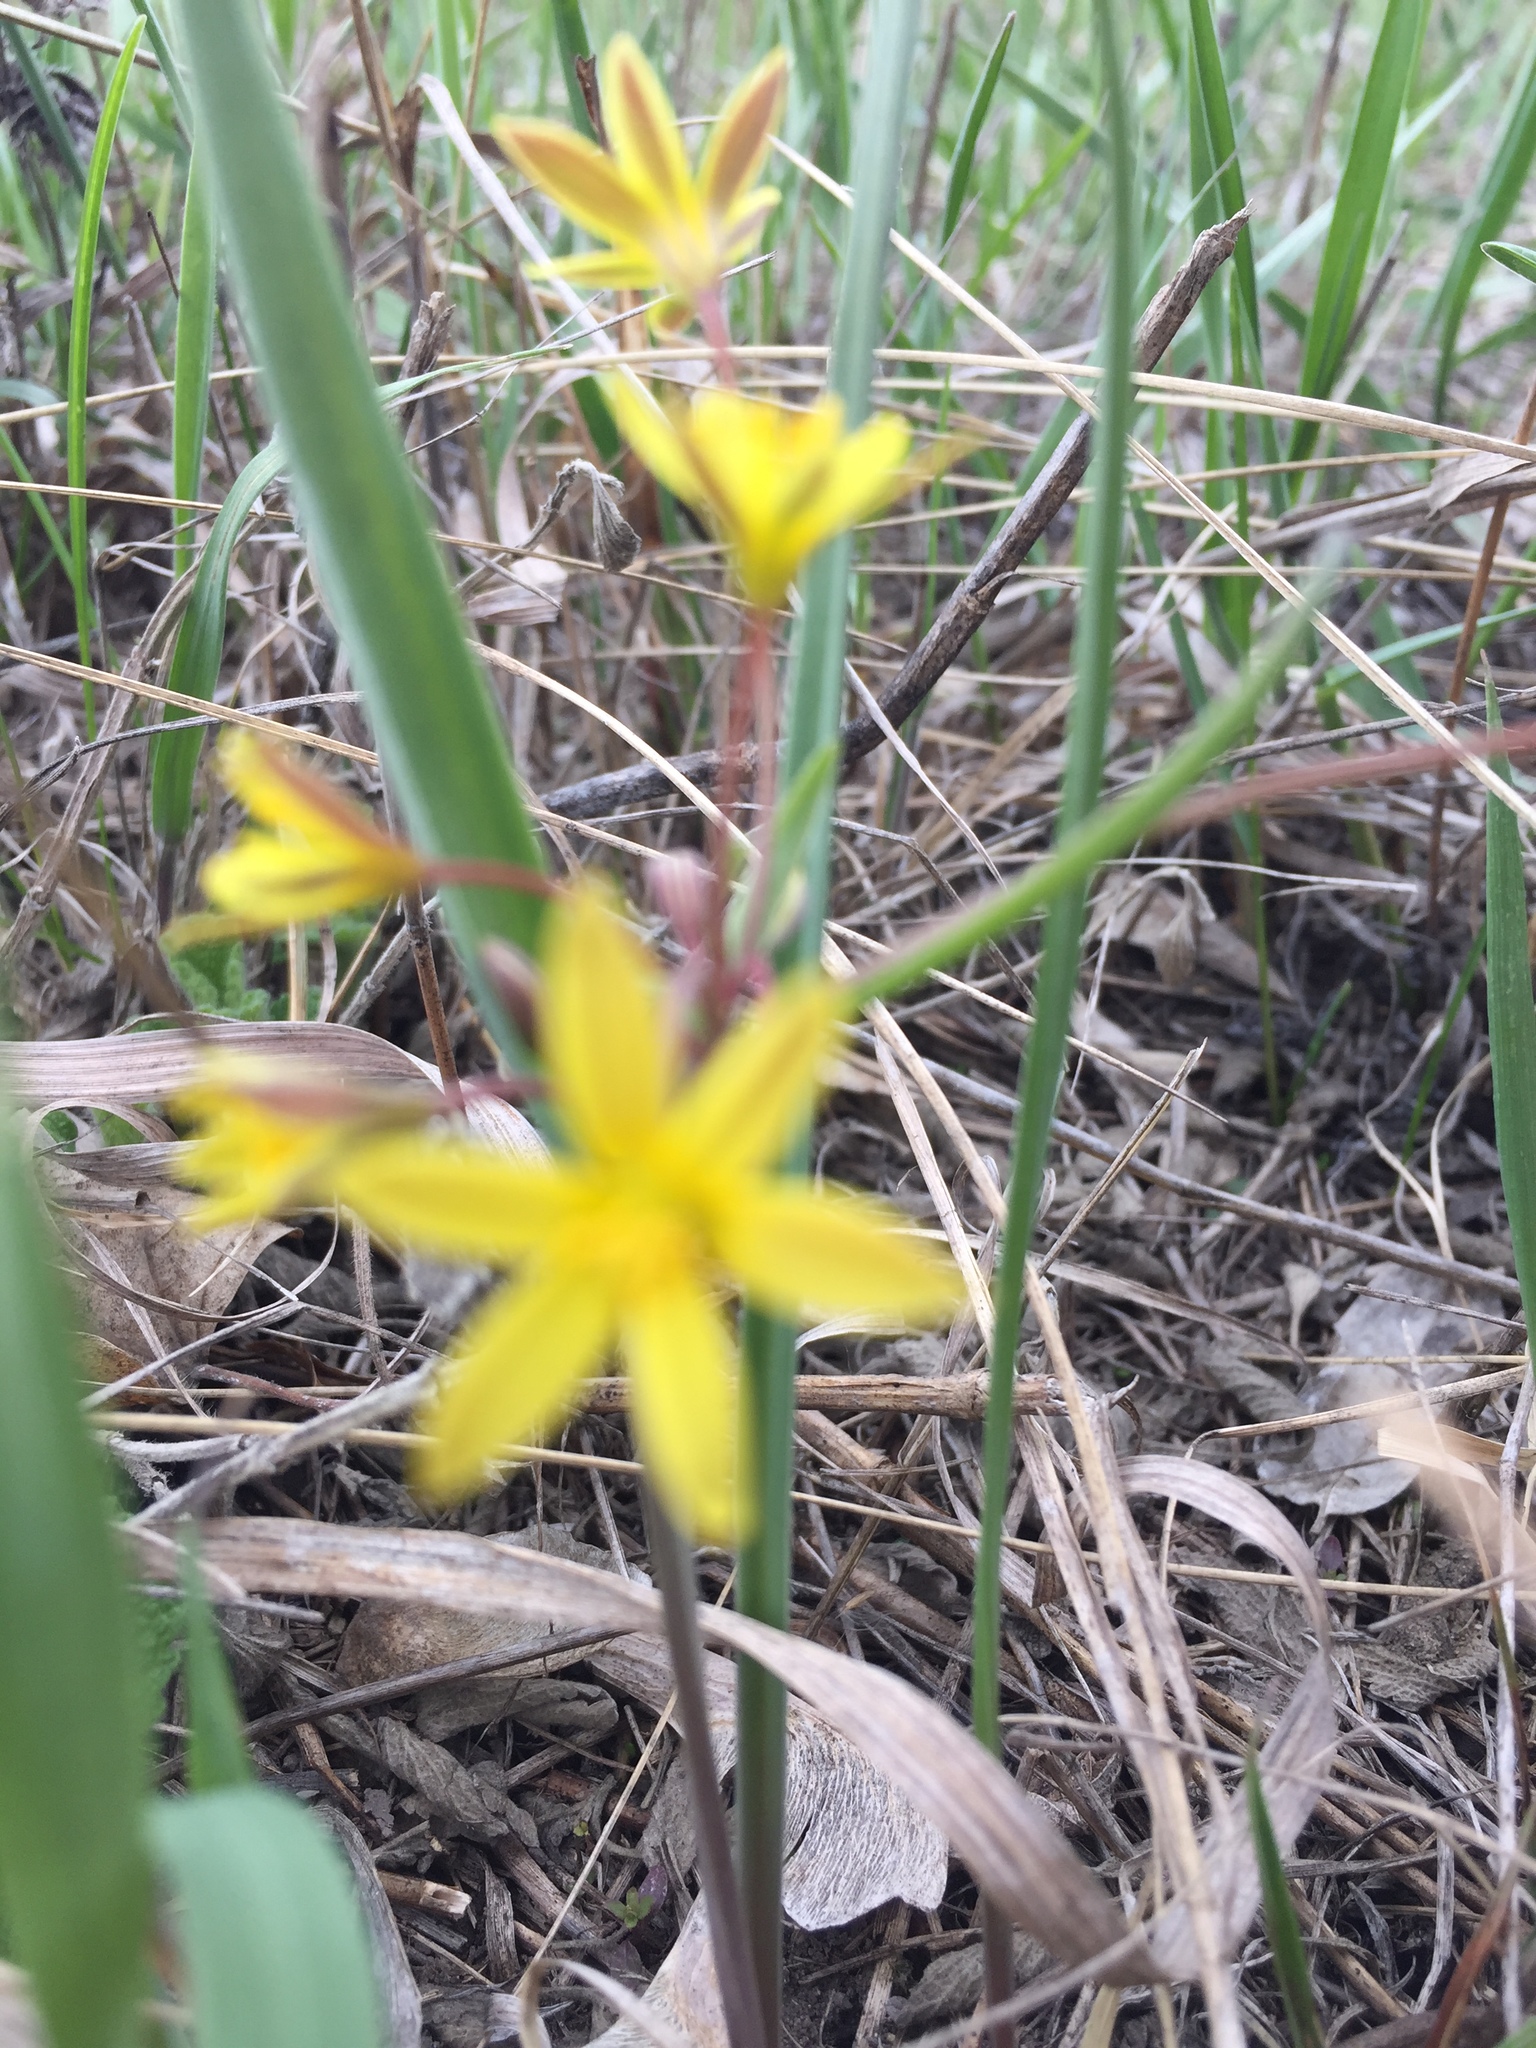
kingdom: Plantae
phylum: Tracheophyta
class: Liliopsida
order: Liliales
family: Liliaceae
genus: Gagea
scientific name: Gagea fragifera
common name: Lily
